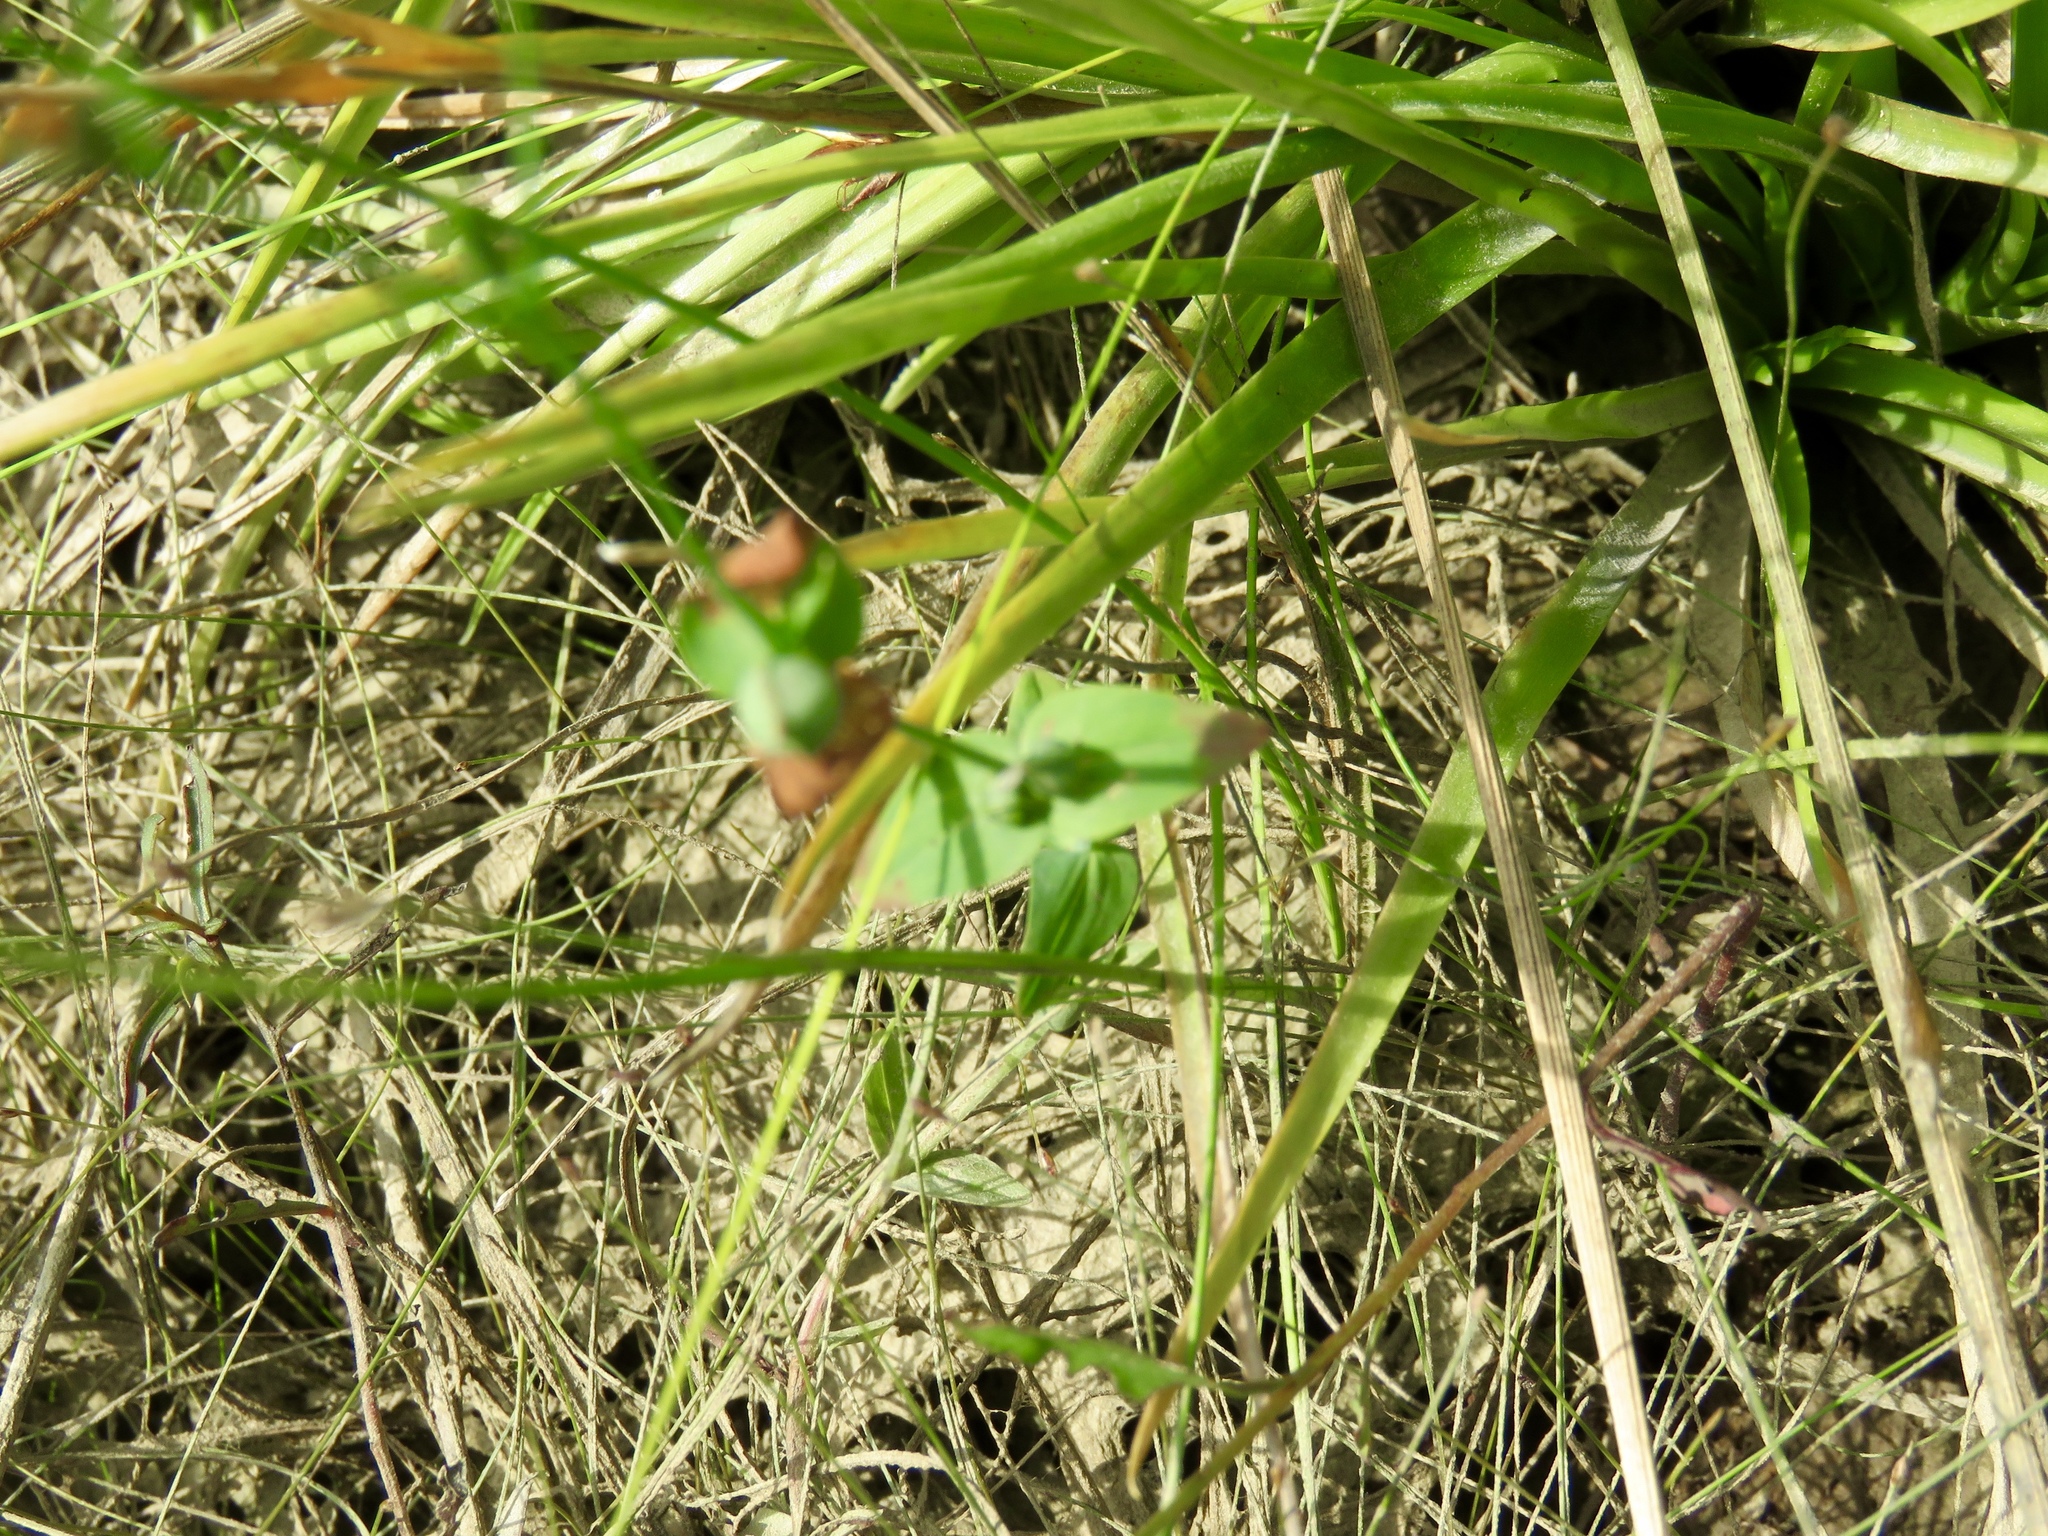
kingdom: Plantae
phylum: Tracheophyta
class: Magnoliopsida
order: Malpighiales
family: Hypericaceae
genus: Hypericum
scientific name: Hypericum mutilum
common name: Dwarf st. john's-wort
